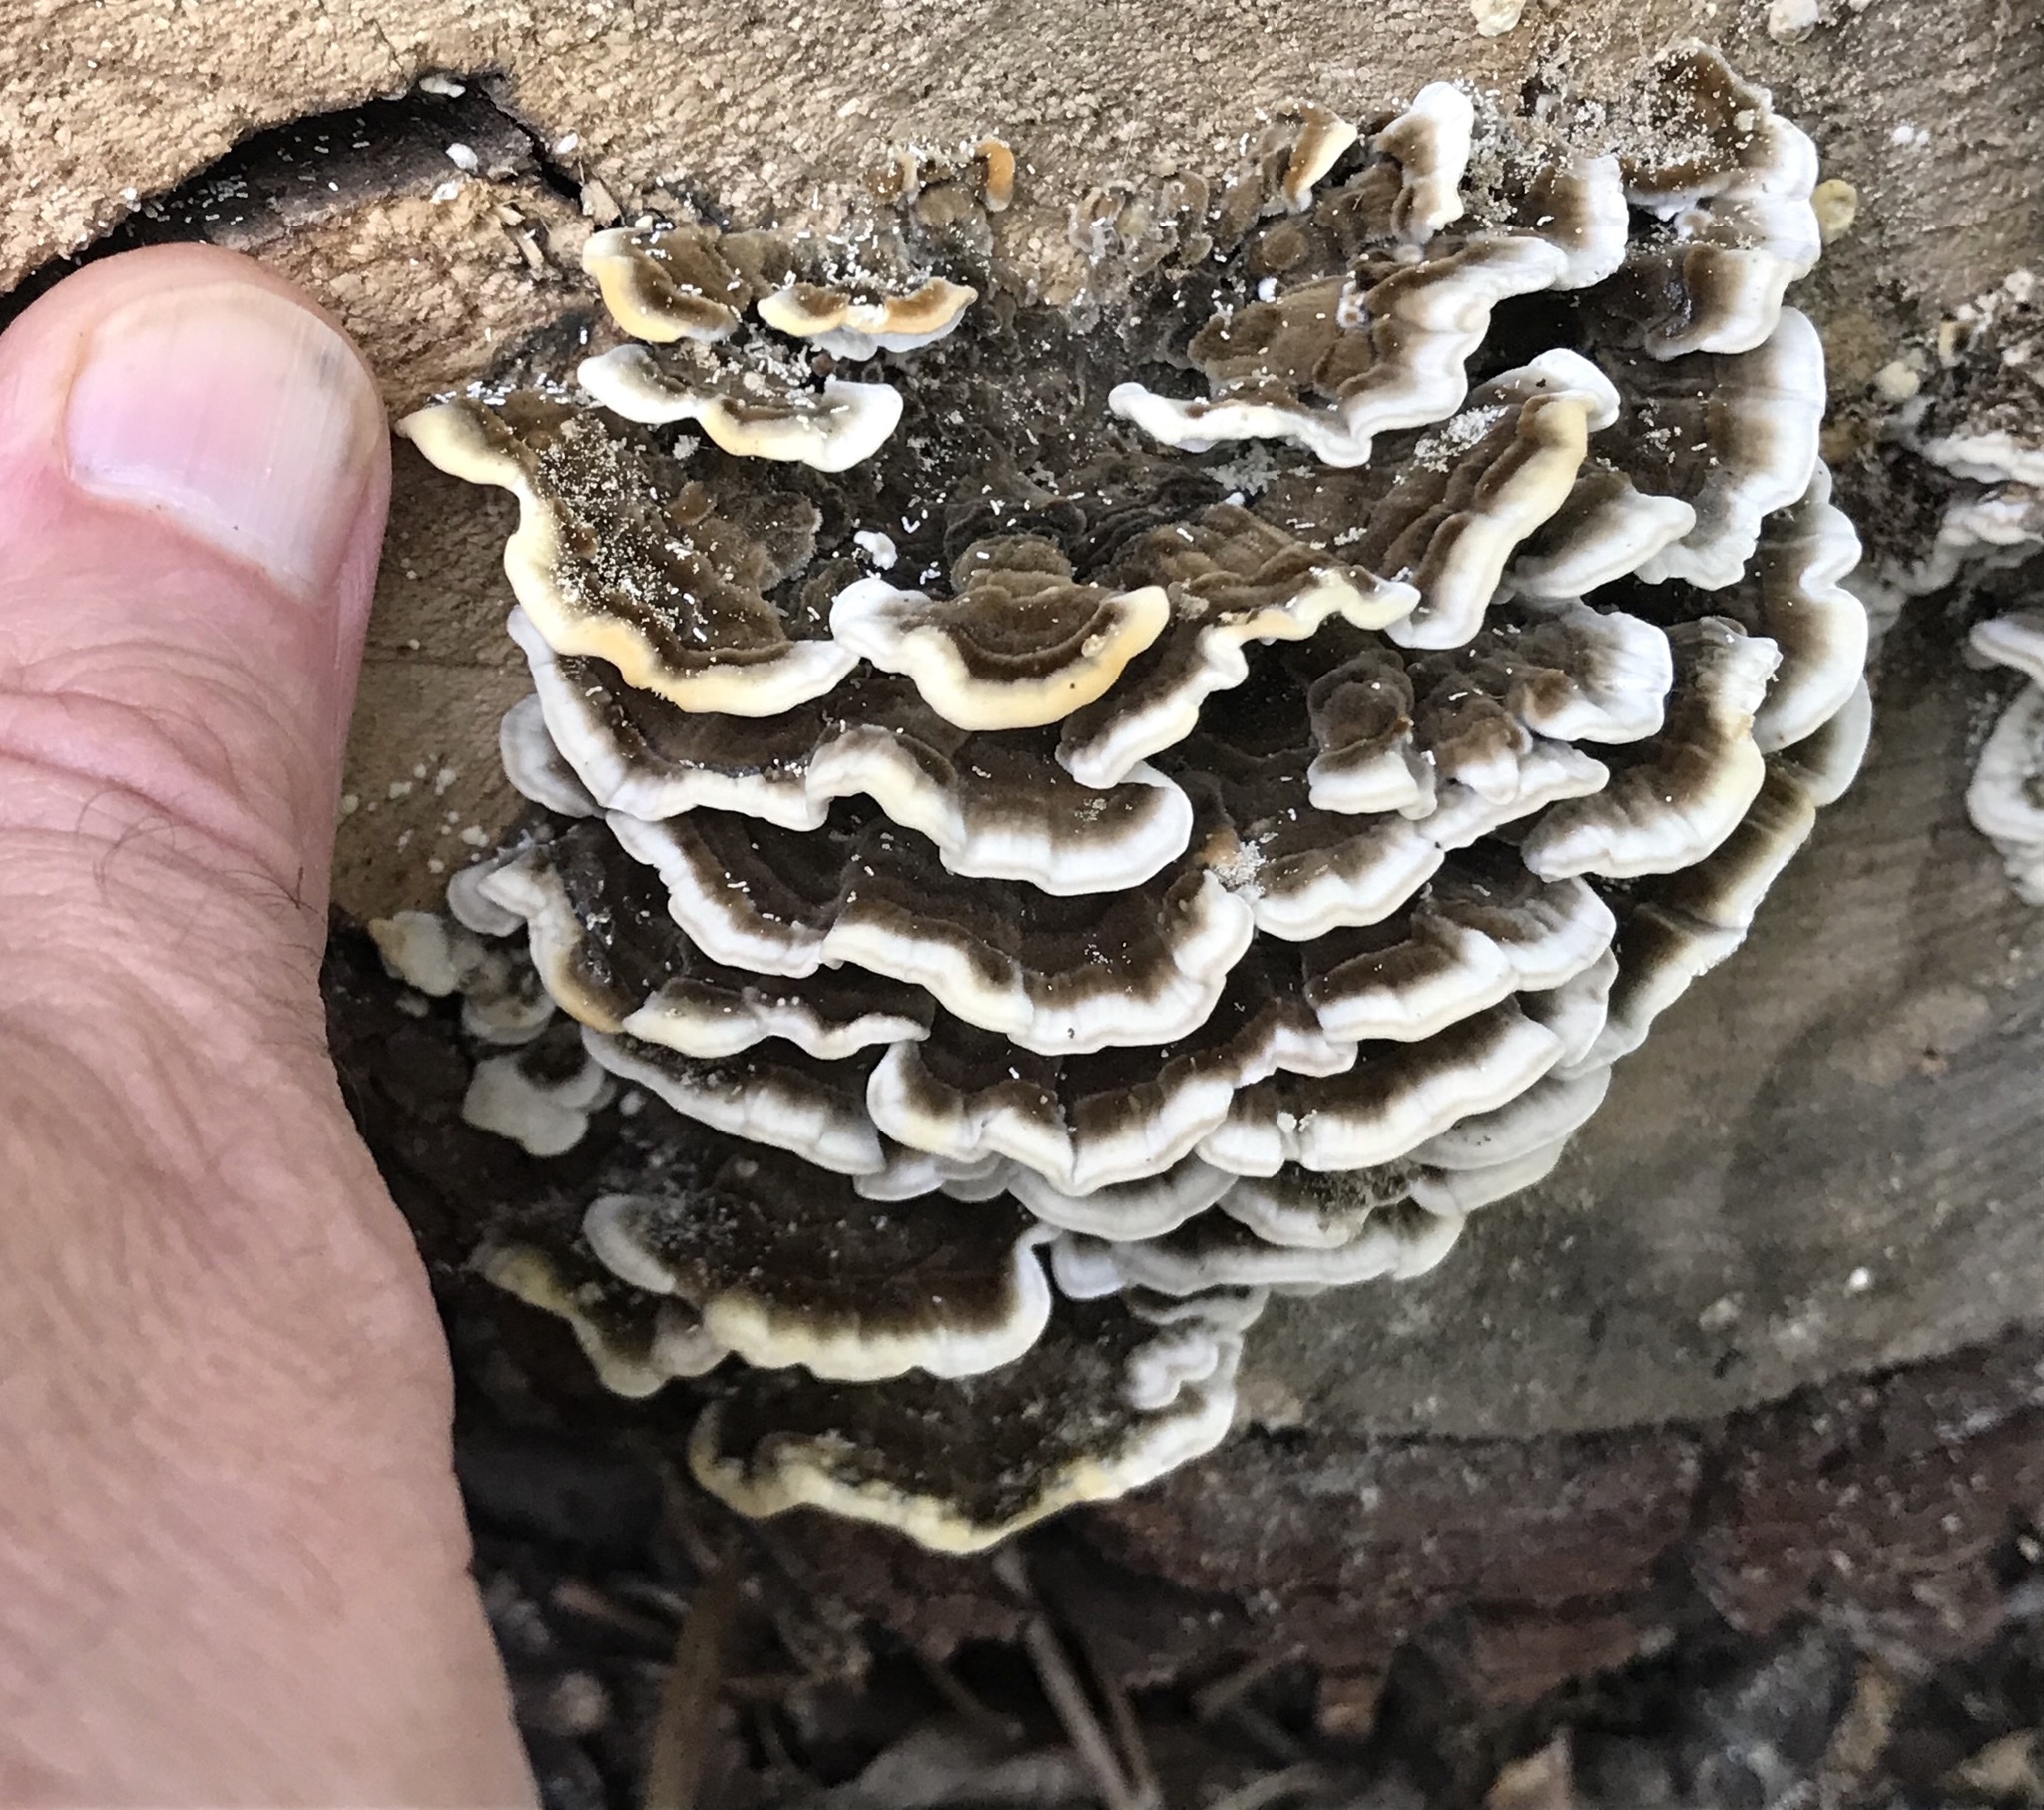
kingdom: Fungi
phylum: Basidiomycota
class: Agaricomycetes
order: Polyporales
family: Polyporaceae
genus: Trametes
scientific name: Trametes versicolor
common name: Turkeytail
